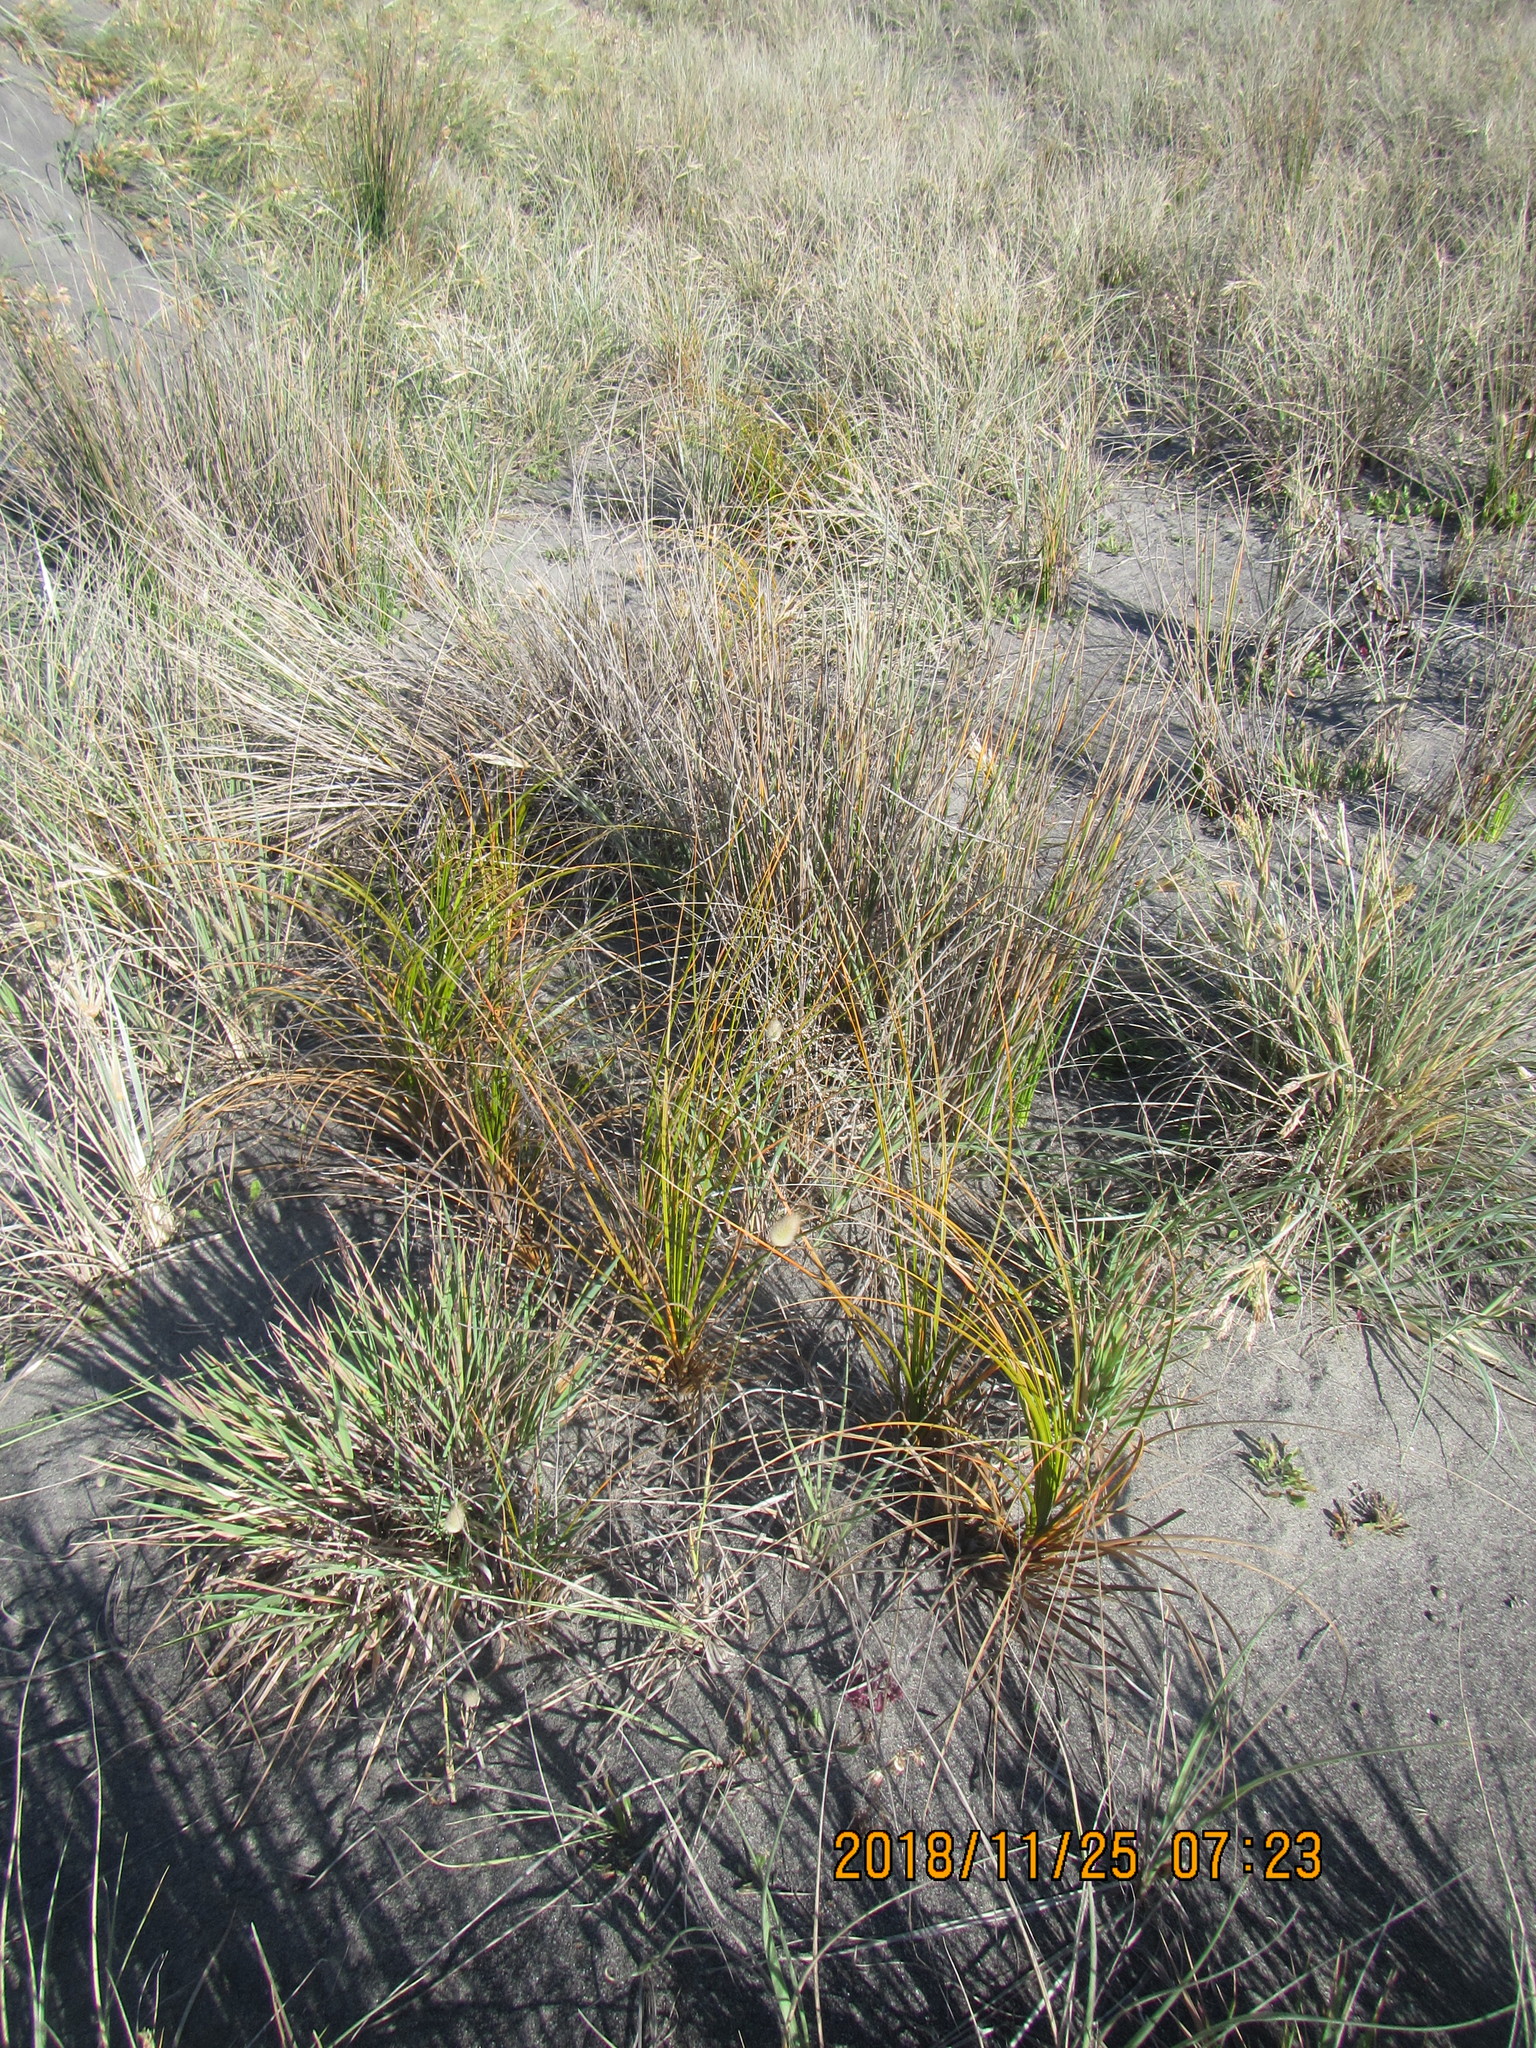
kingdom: Plantae
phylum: Tracheophyta
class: Liliopsida
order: Poales
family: Cyperaceae
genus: Ficinia
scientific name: Ficinia spiralis
